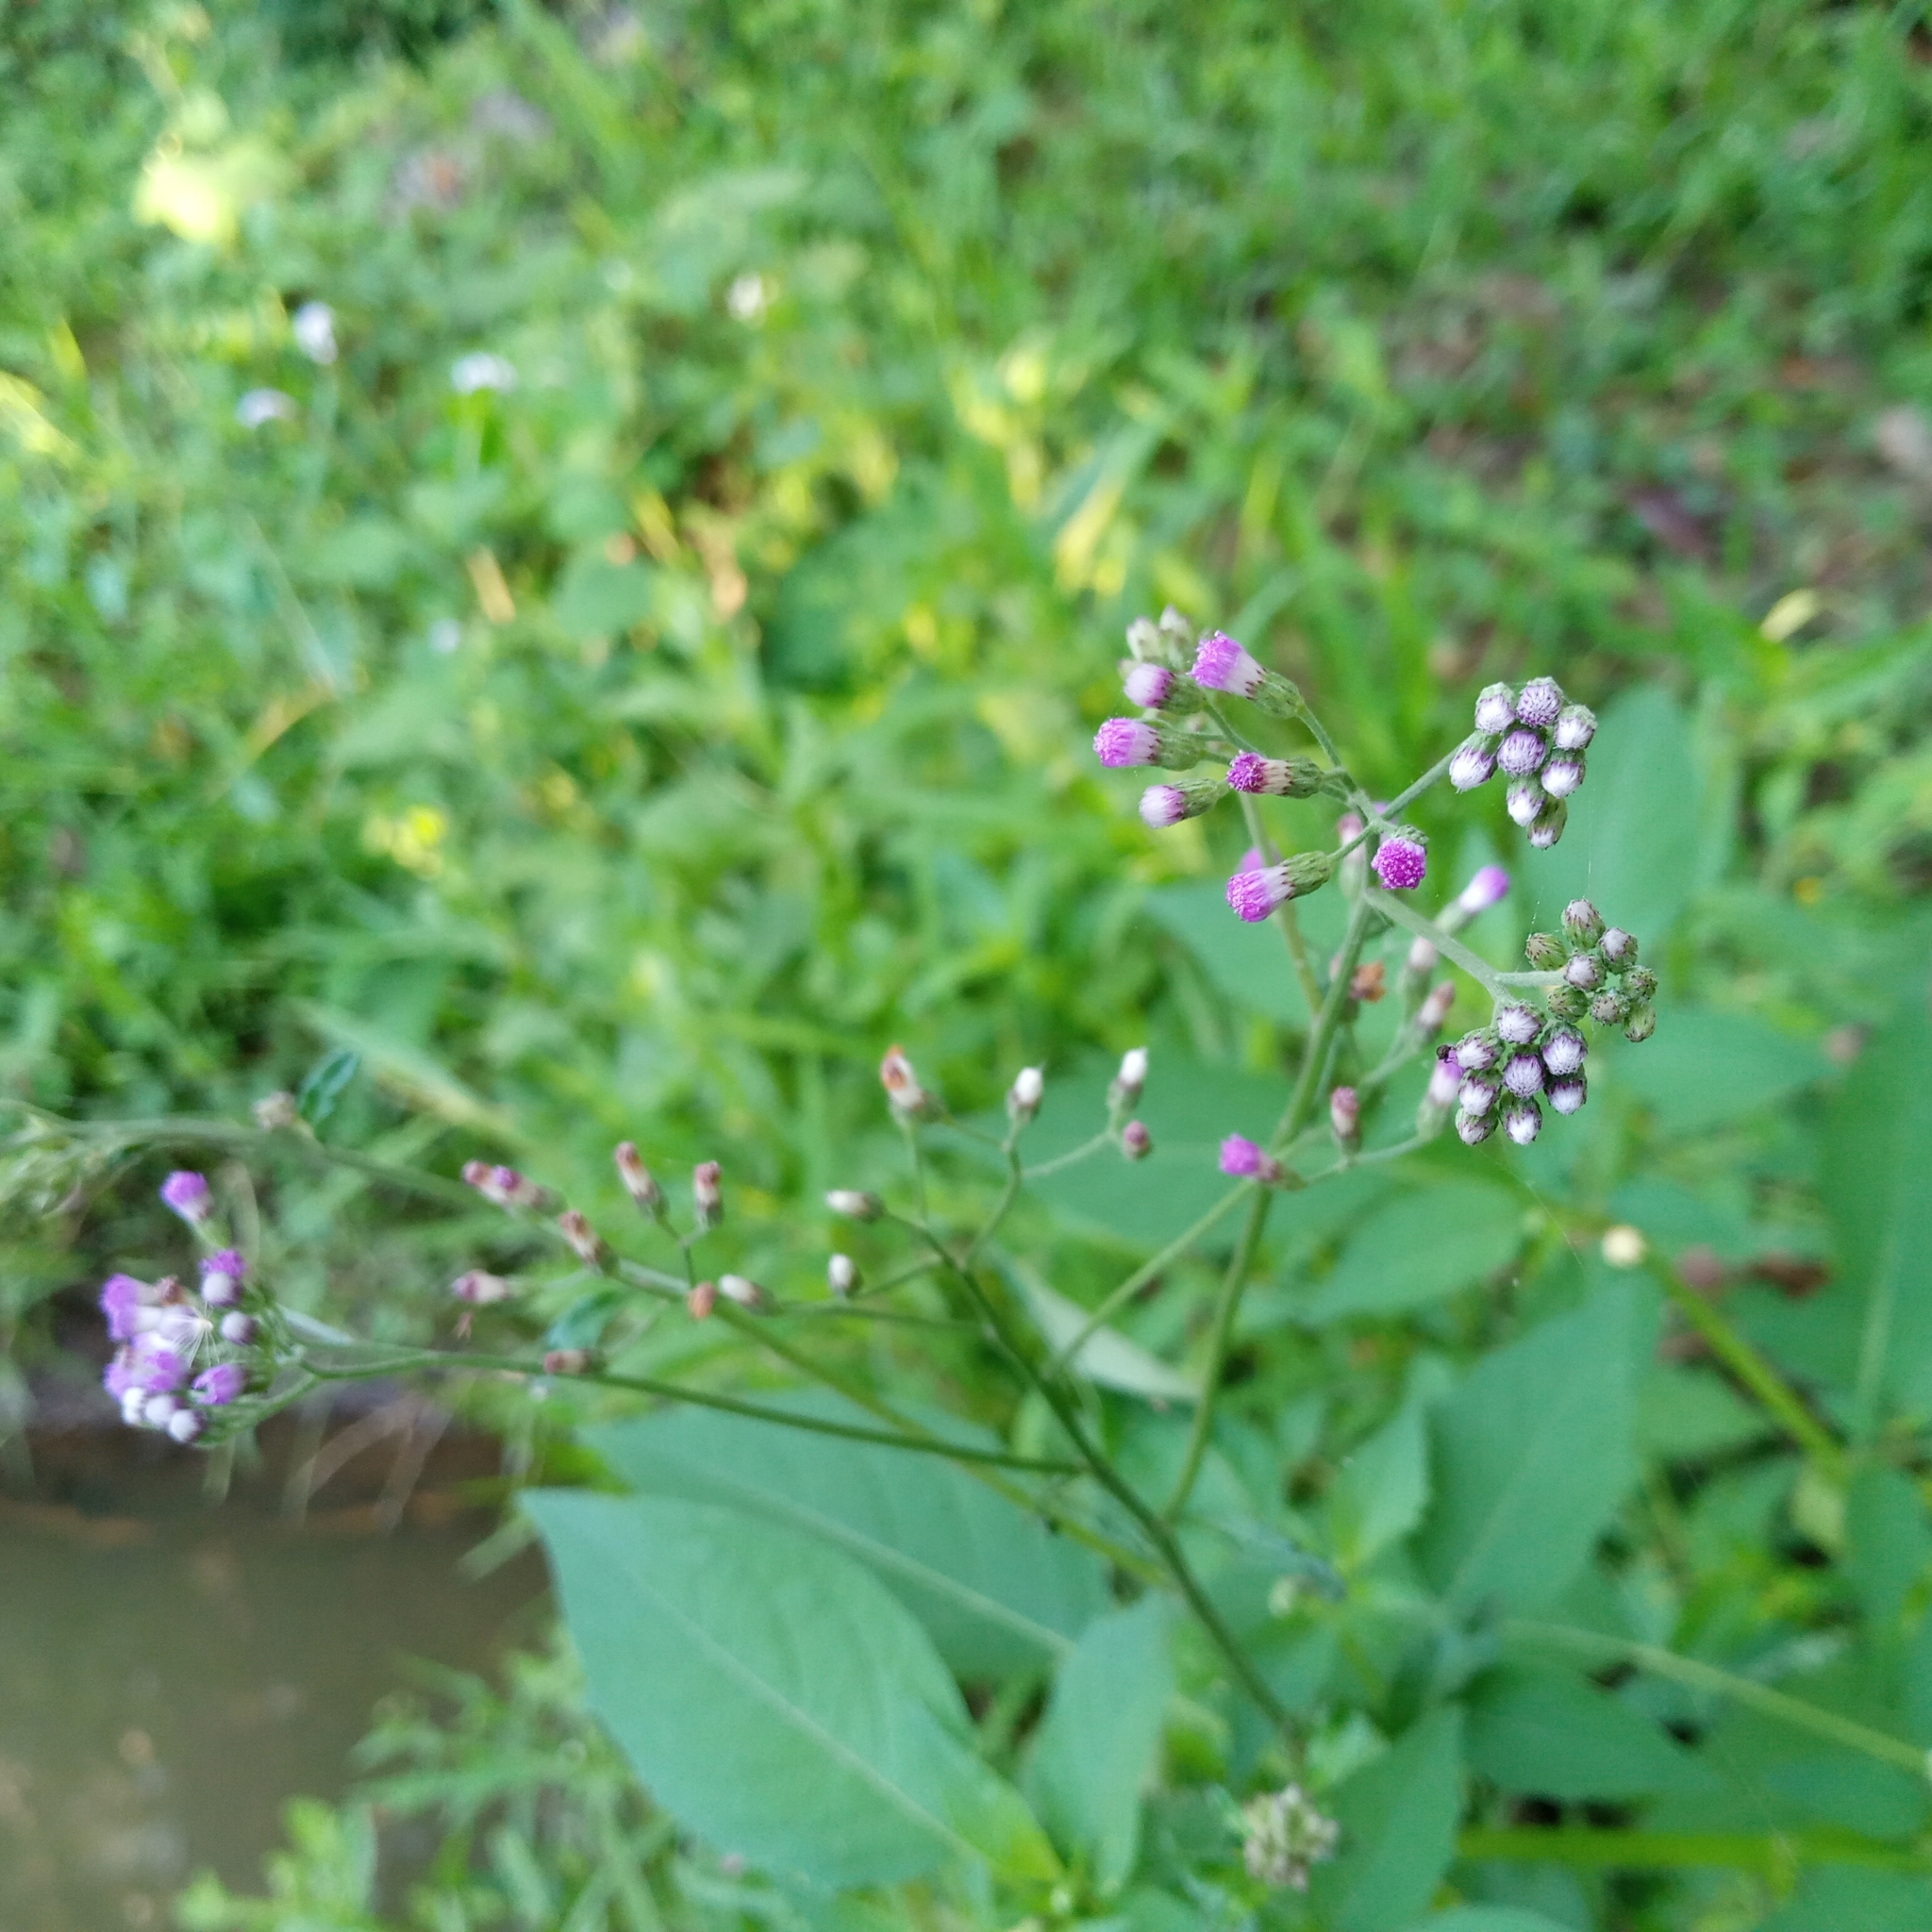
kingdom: Plantae
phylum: Tracheophyta
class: Magnoliopsida
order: Asterales
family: Asteraceae
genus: Cyanthillium
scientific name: Cyanthillium cinereum
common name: Little ironweed
